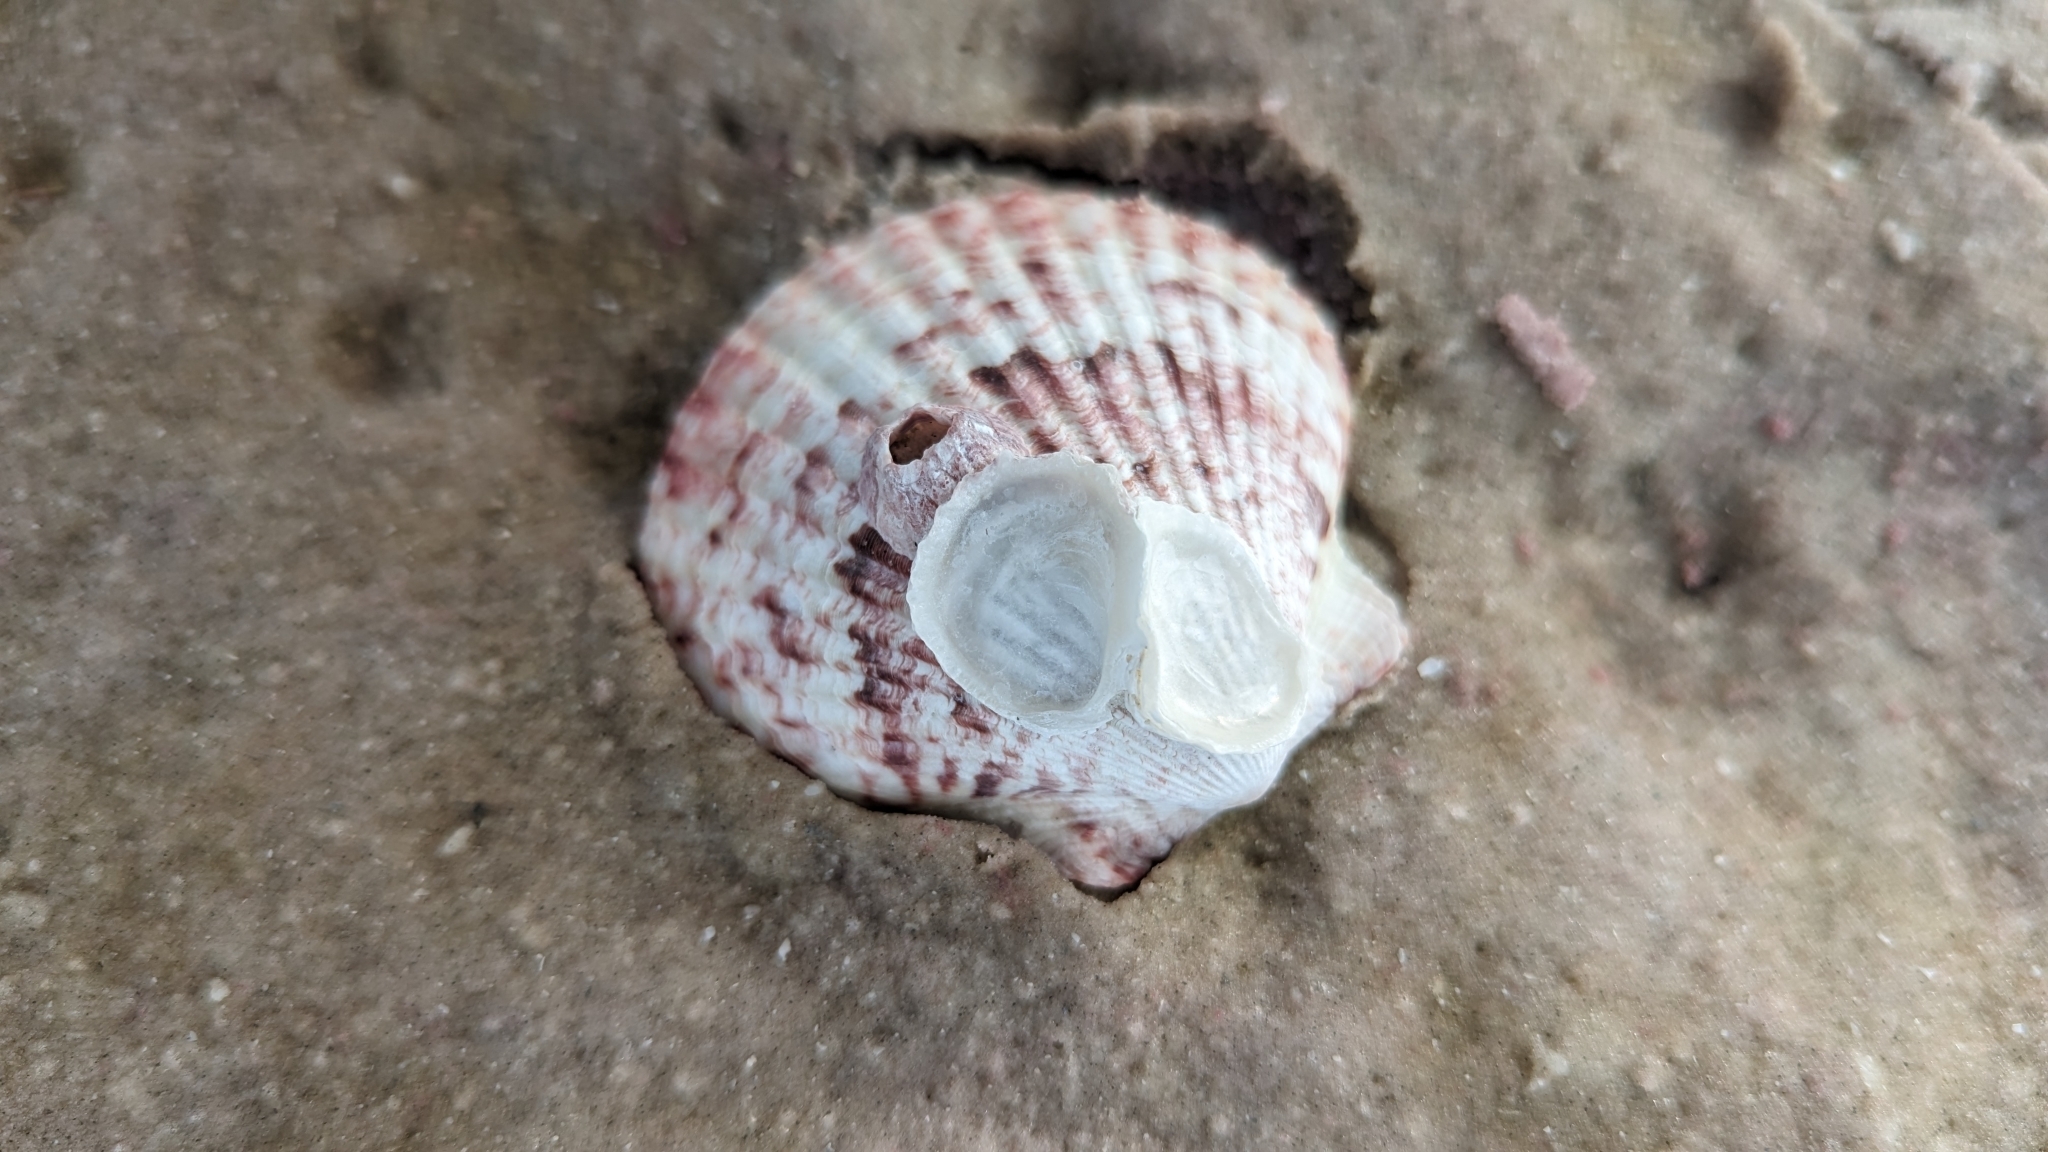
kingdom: Animalia
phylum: Mollusca
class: Bivalvia
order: Pectinida
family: Pectinidae
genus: Argopecten
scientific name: Argopecten gibbus
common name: Atlantic calico scallop
